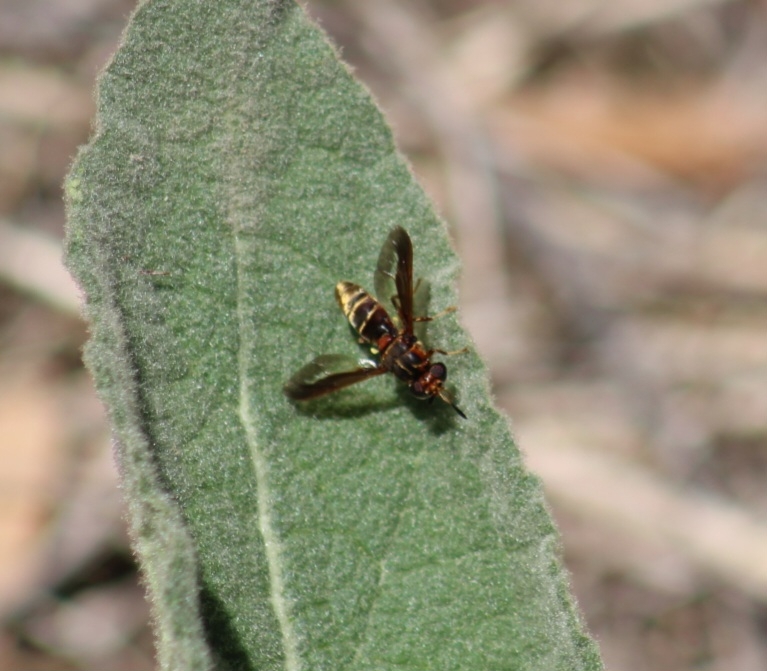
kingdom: Animalia
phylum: Arthropoda
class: Insecta
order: Diptera
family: Stratiomyidae
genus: Hermetia
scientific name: Hermetia comstocki
